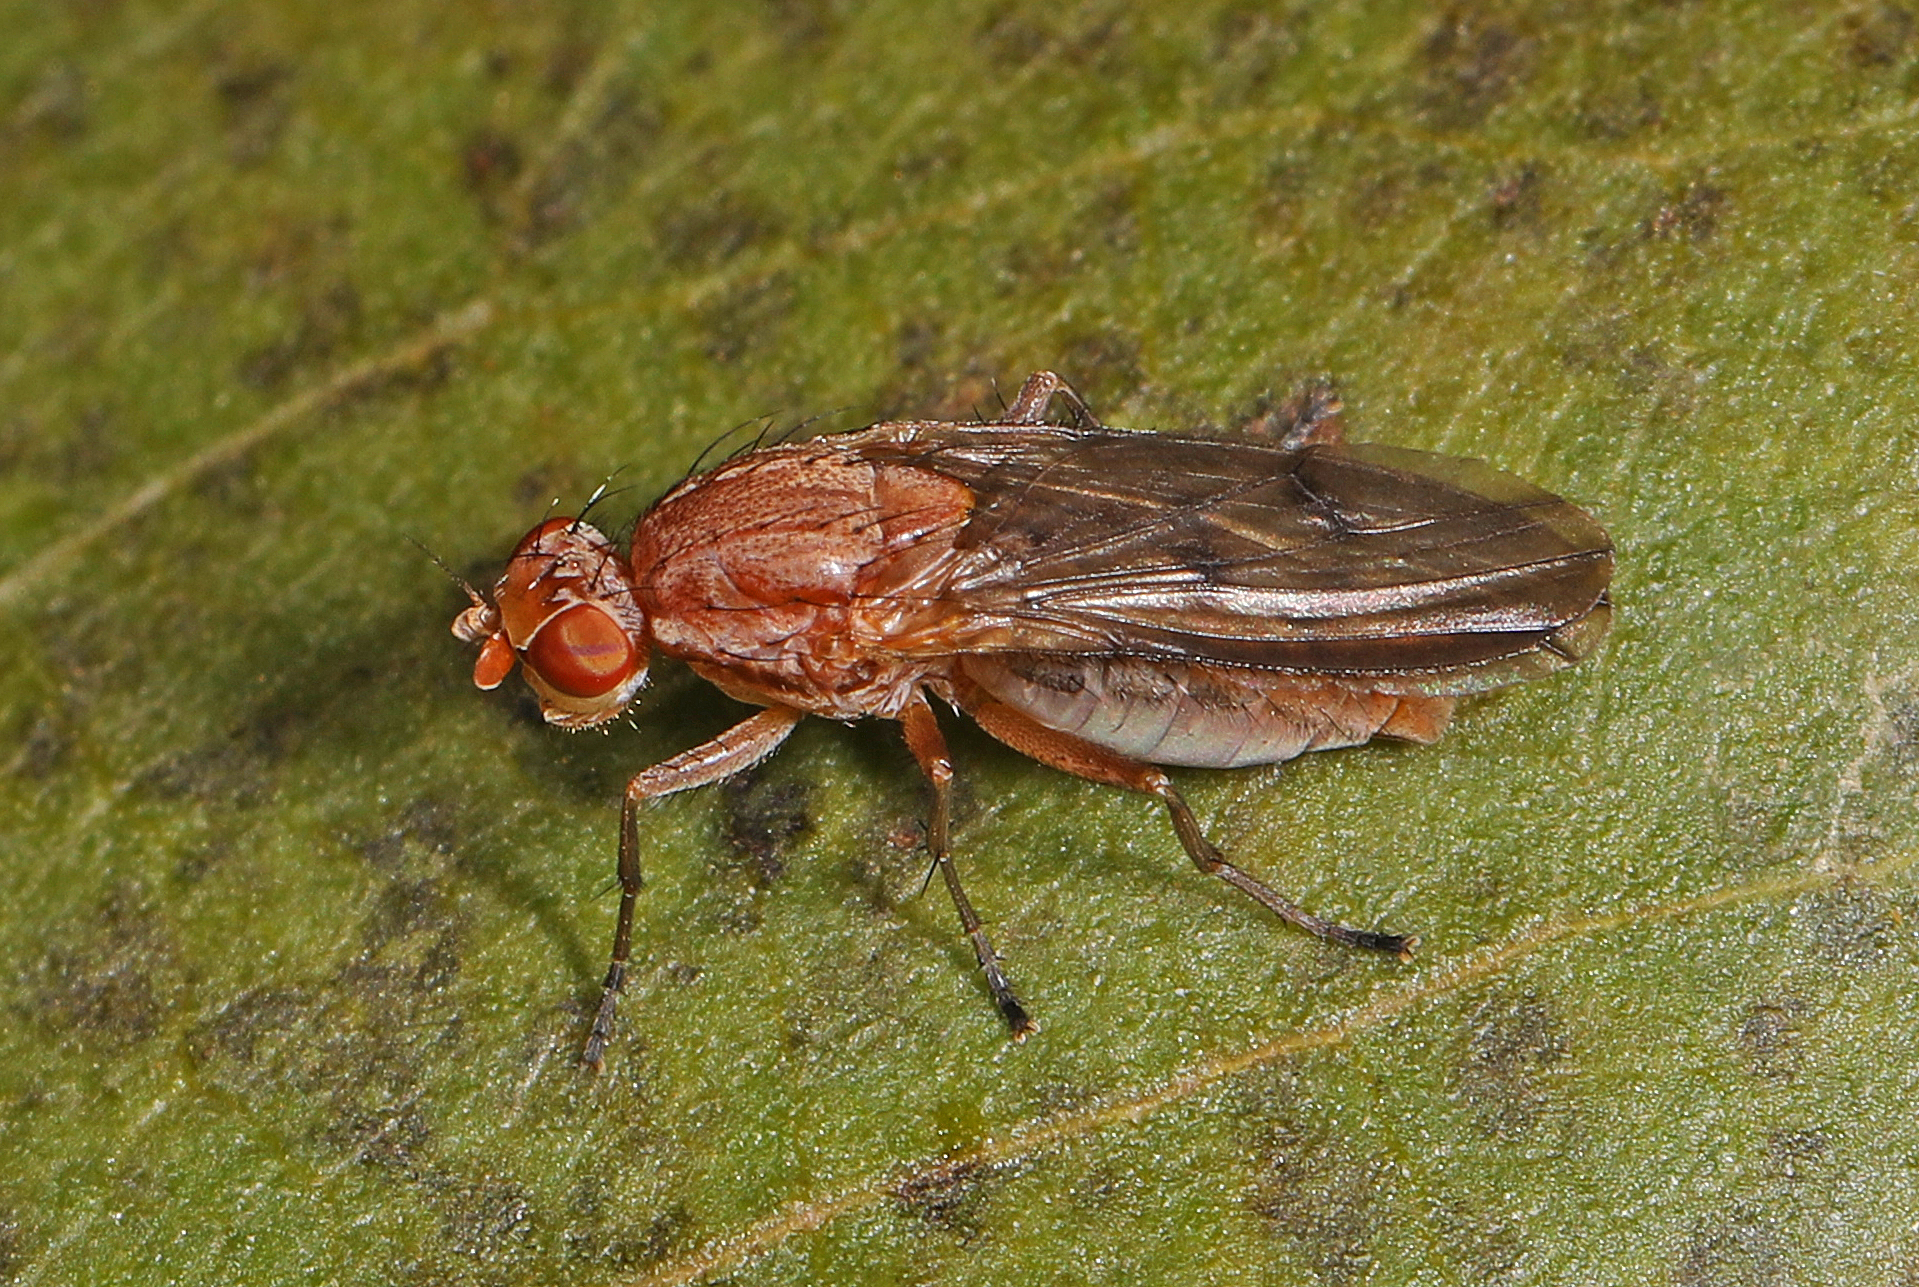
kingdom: Animalia
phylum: Arthropoda
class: Insecta
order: Diptera
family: Heleomyzidae
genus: Suillia
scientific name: Suillia nemorum
